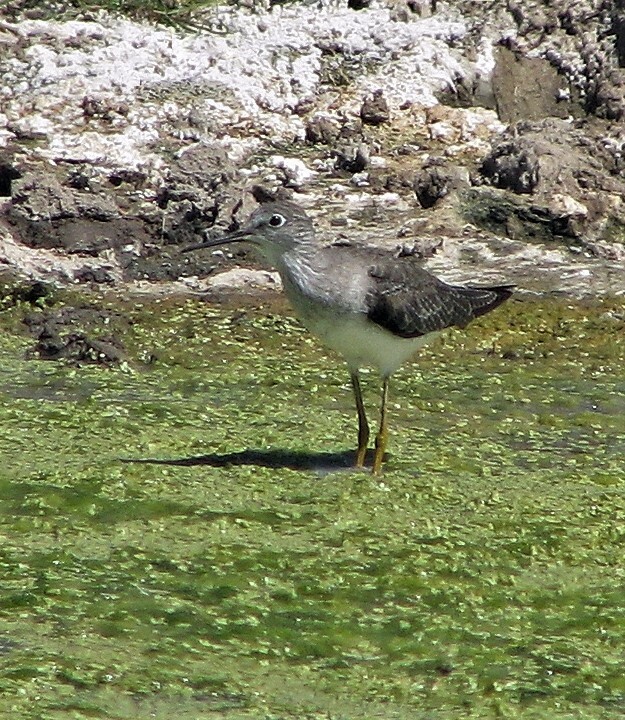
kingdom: Animalia
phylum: Chordata
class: Aves
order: Charadriiformes
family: Scolopacidae
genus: Tringa
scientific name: Tringa solitaria
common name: Solitary sandpiper
